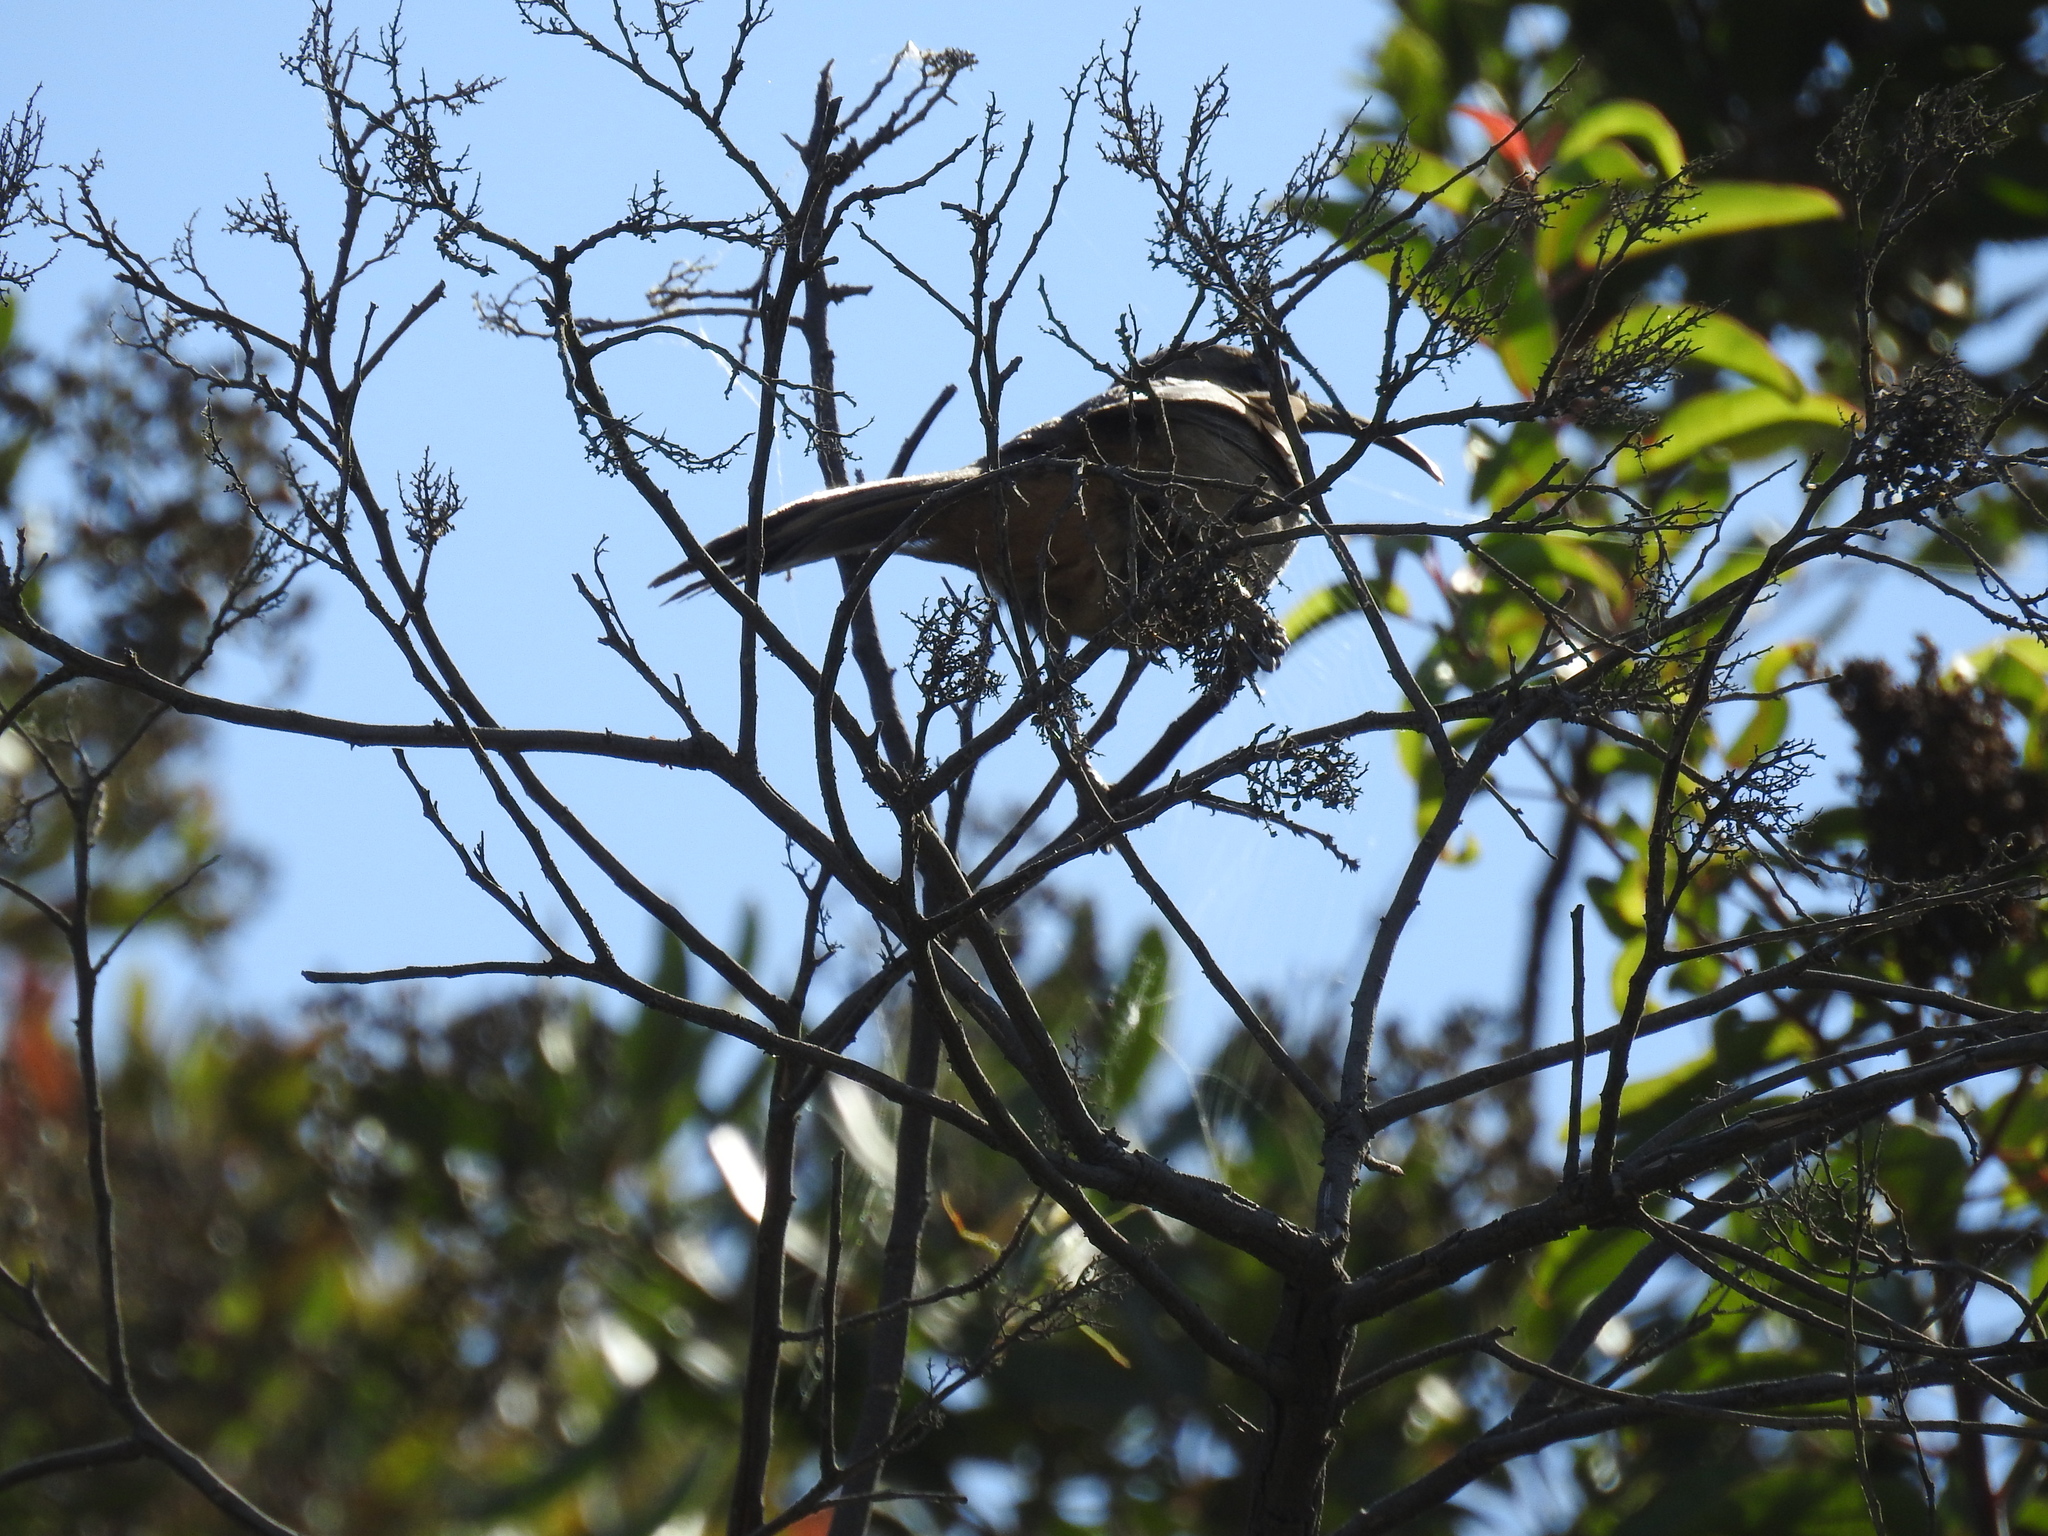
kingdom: Animalia
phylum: Chordata
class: Aves
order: Passeriformes
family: Mimidae
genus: Toxostoma
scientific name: Toxostoma redivivum
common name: California thrasher
